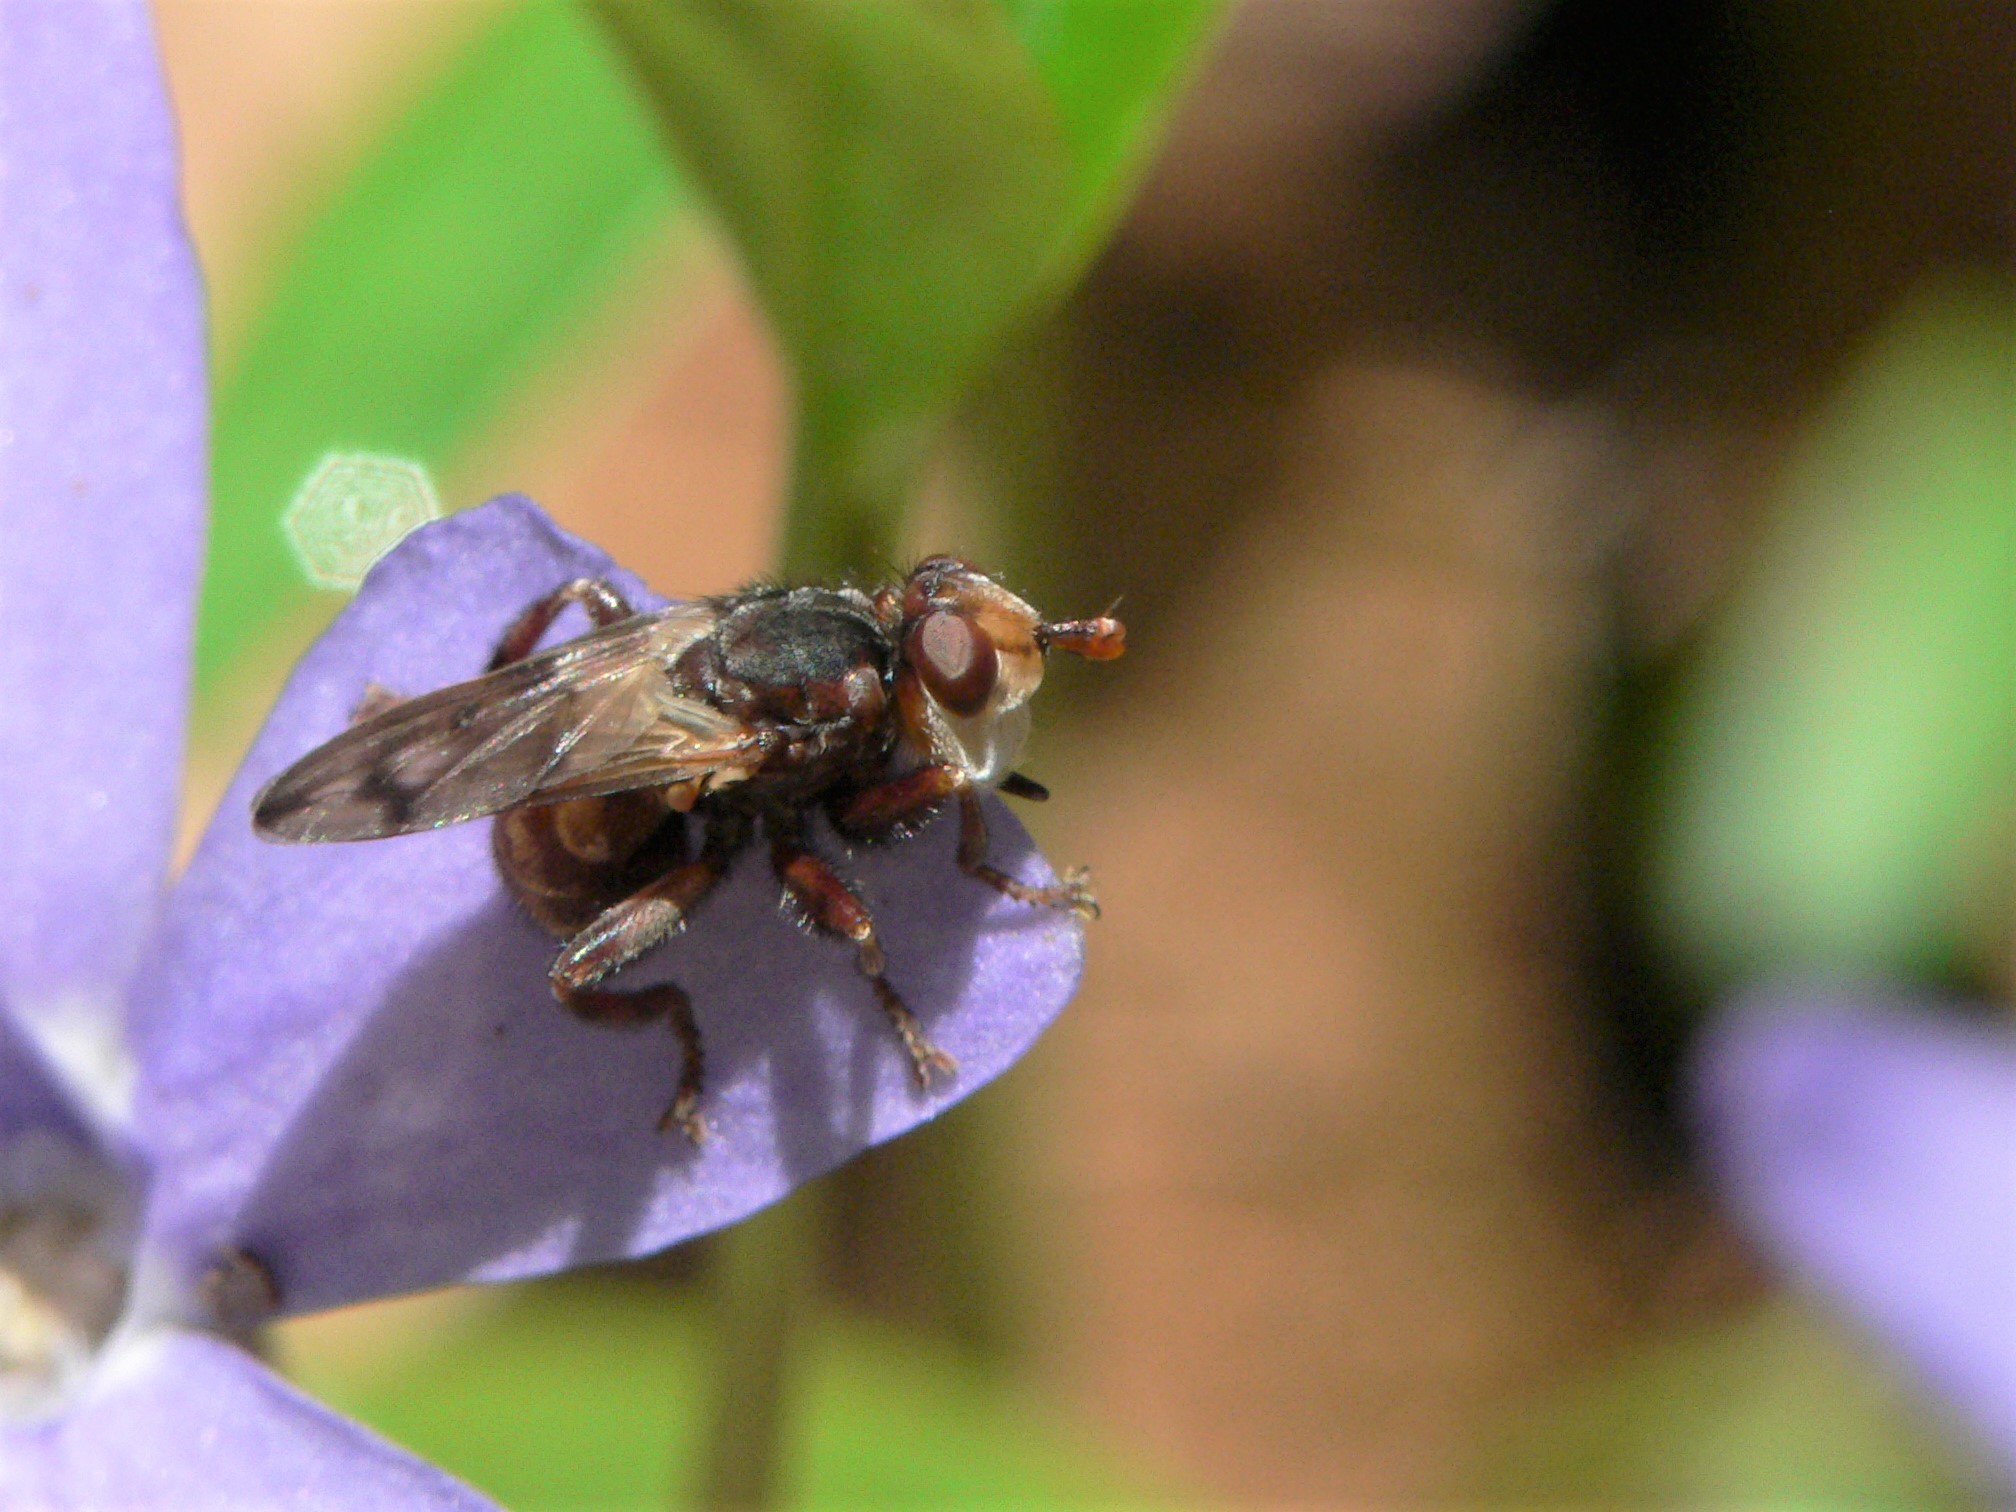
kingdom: Animalia
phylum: Arthropoda
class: Insecta
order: Diptera
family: Conopidae
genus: Myopa
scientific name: Myopa vicaria
